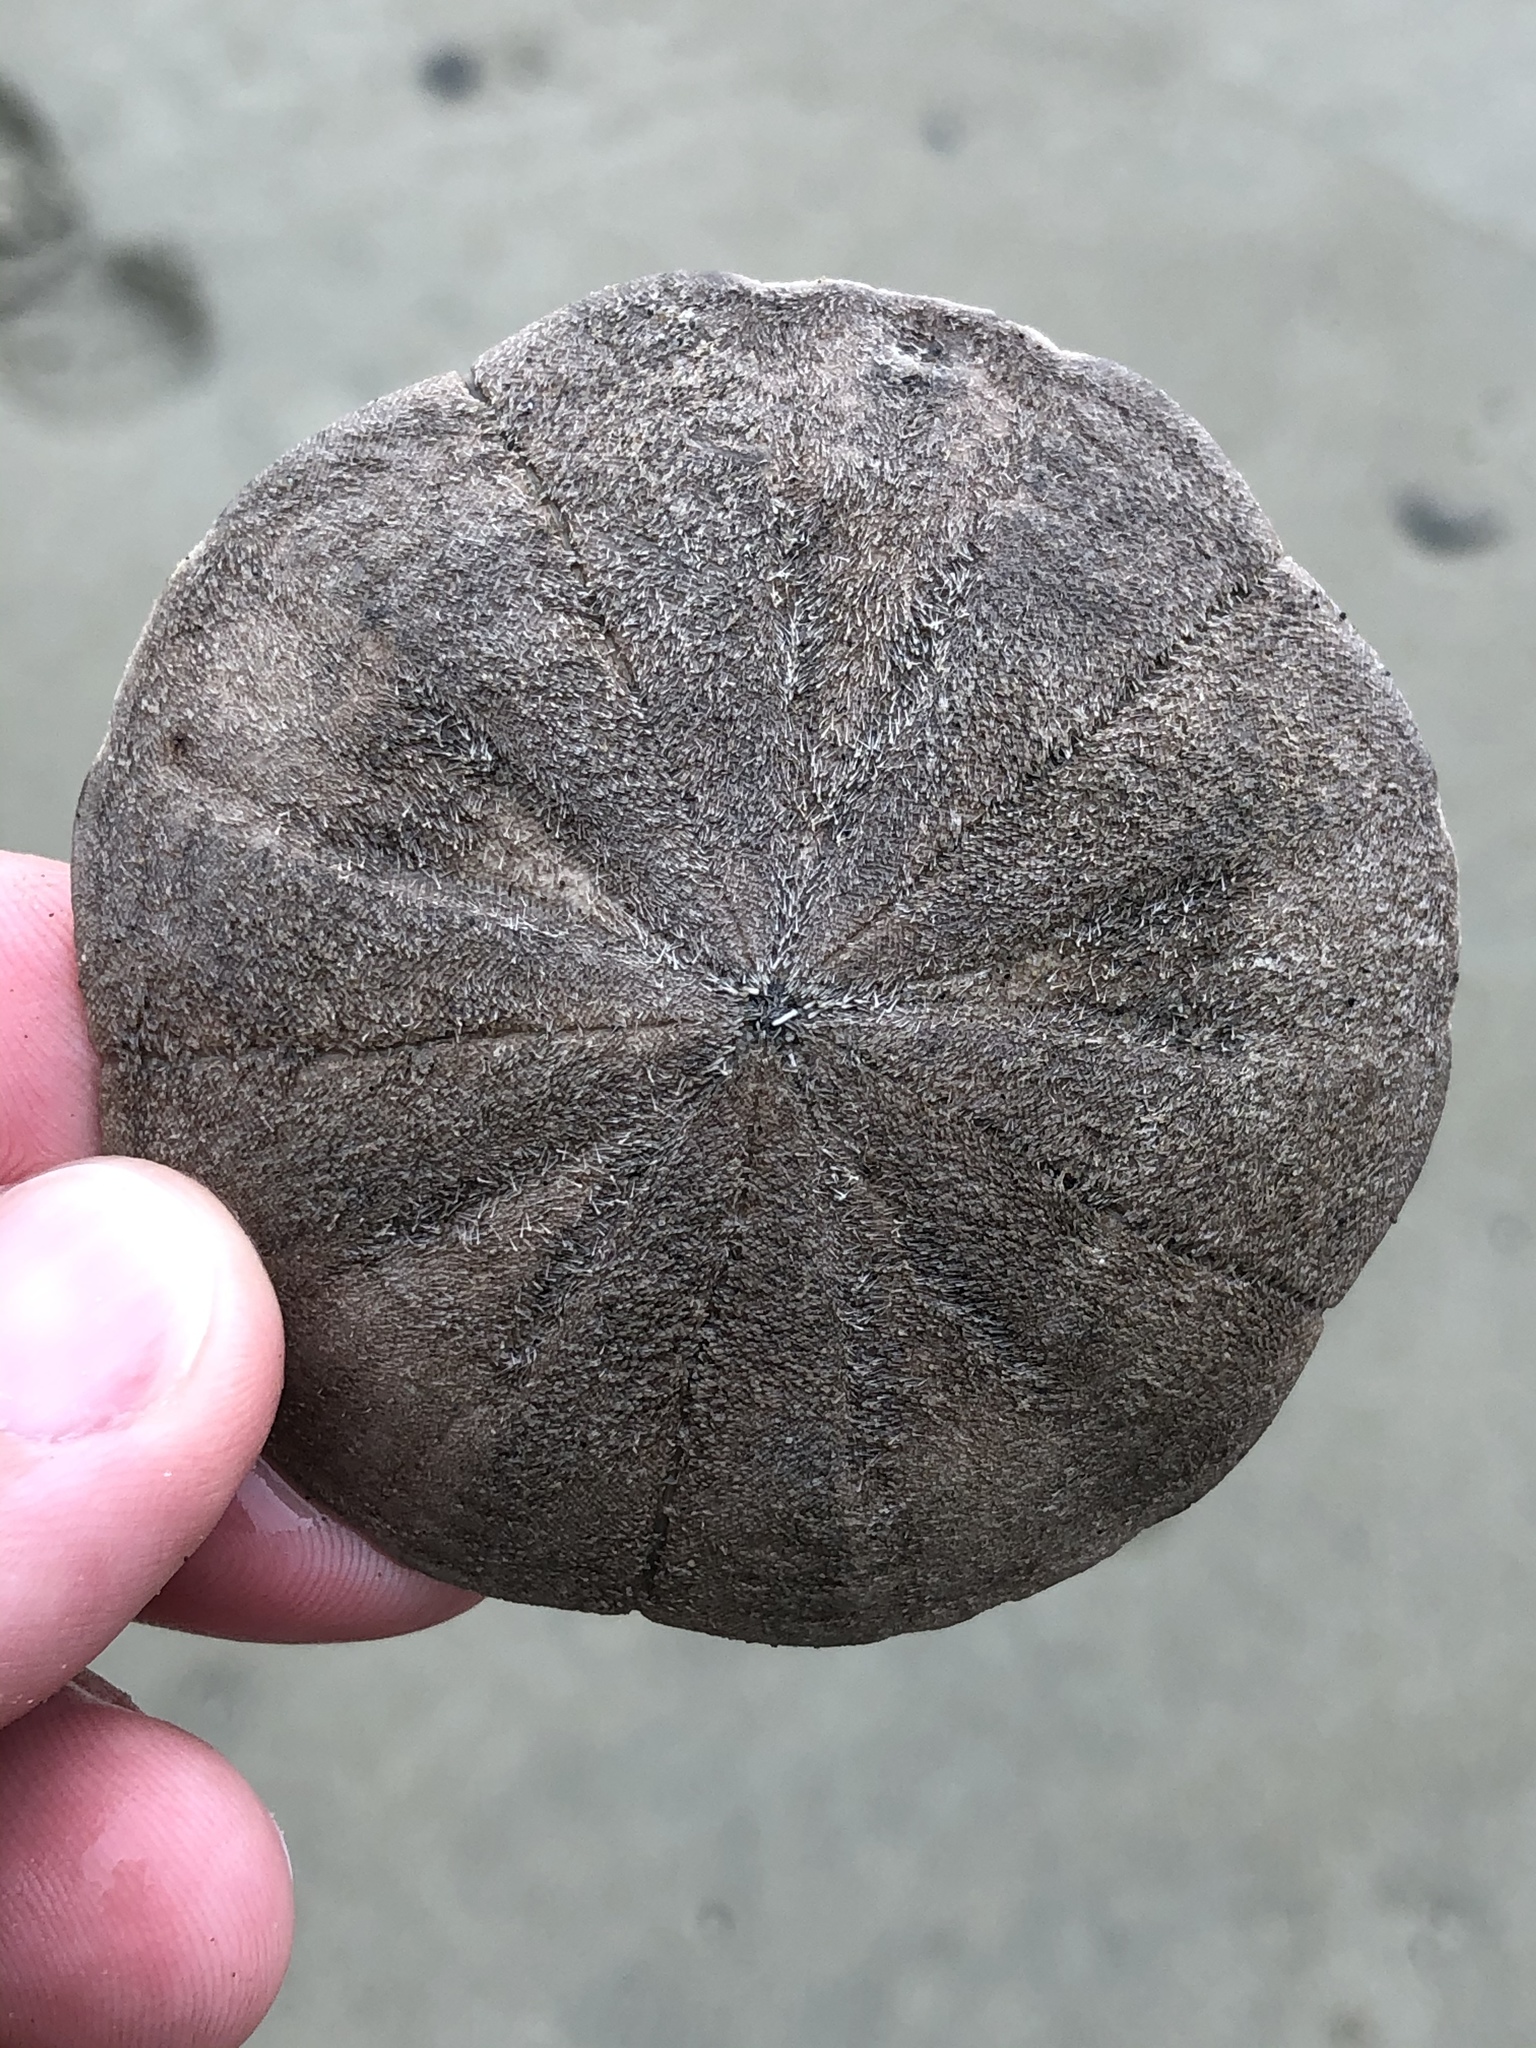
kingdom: Animalia
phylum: Echinodermata
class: Echinoidea
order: Clypeasteroida
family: Clypeasteridae
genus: Fellaster
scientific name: Fellaster zelandiae
